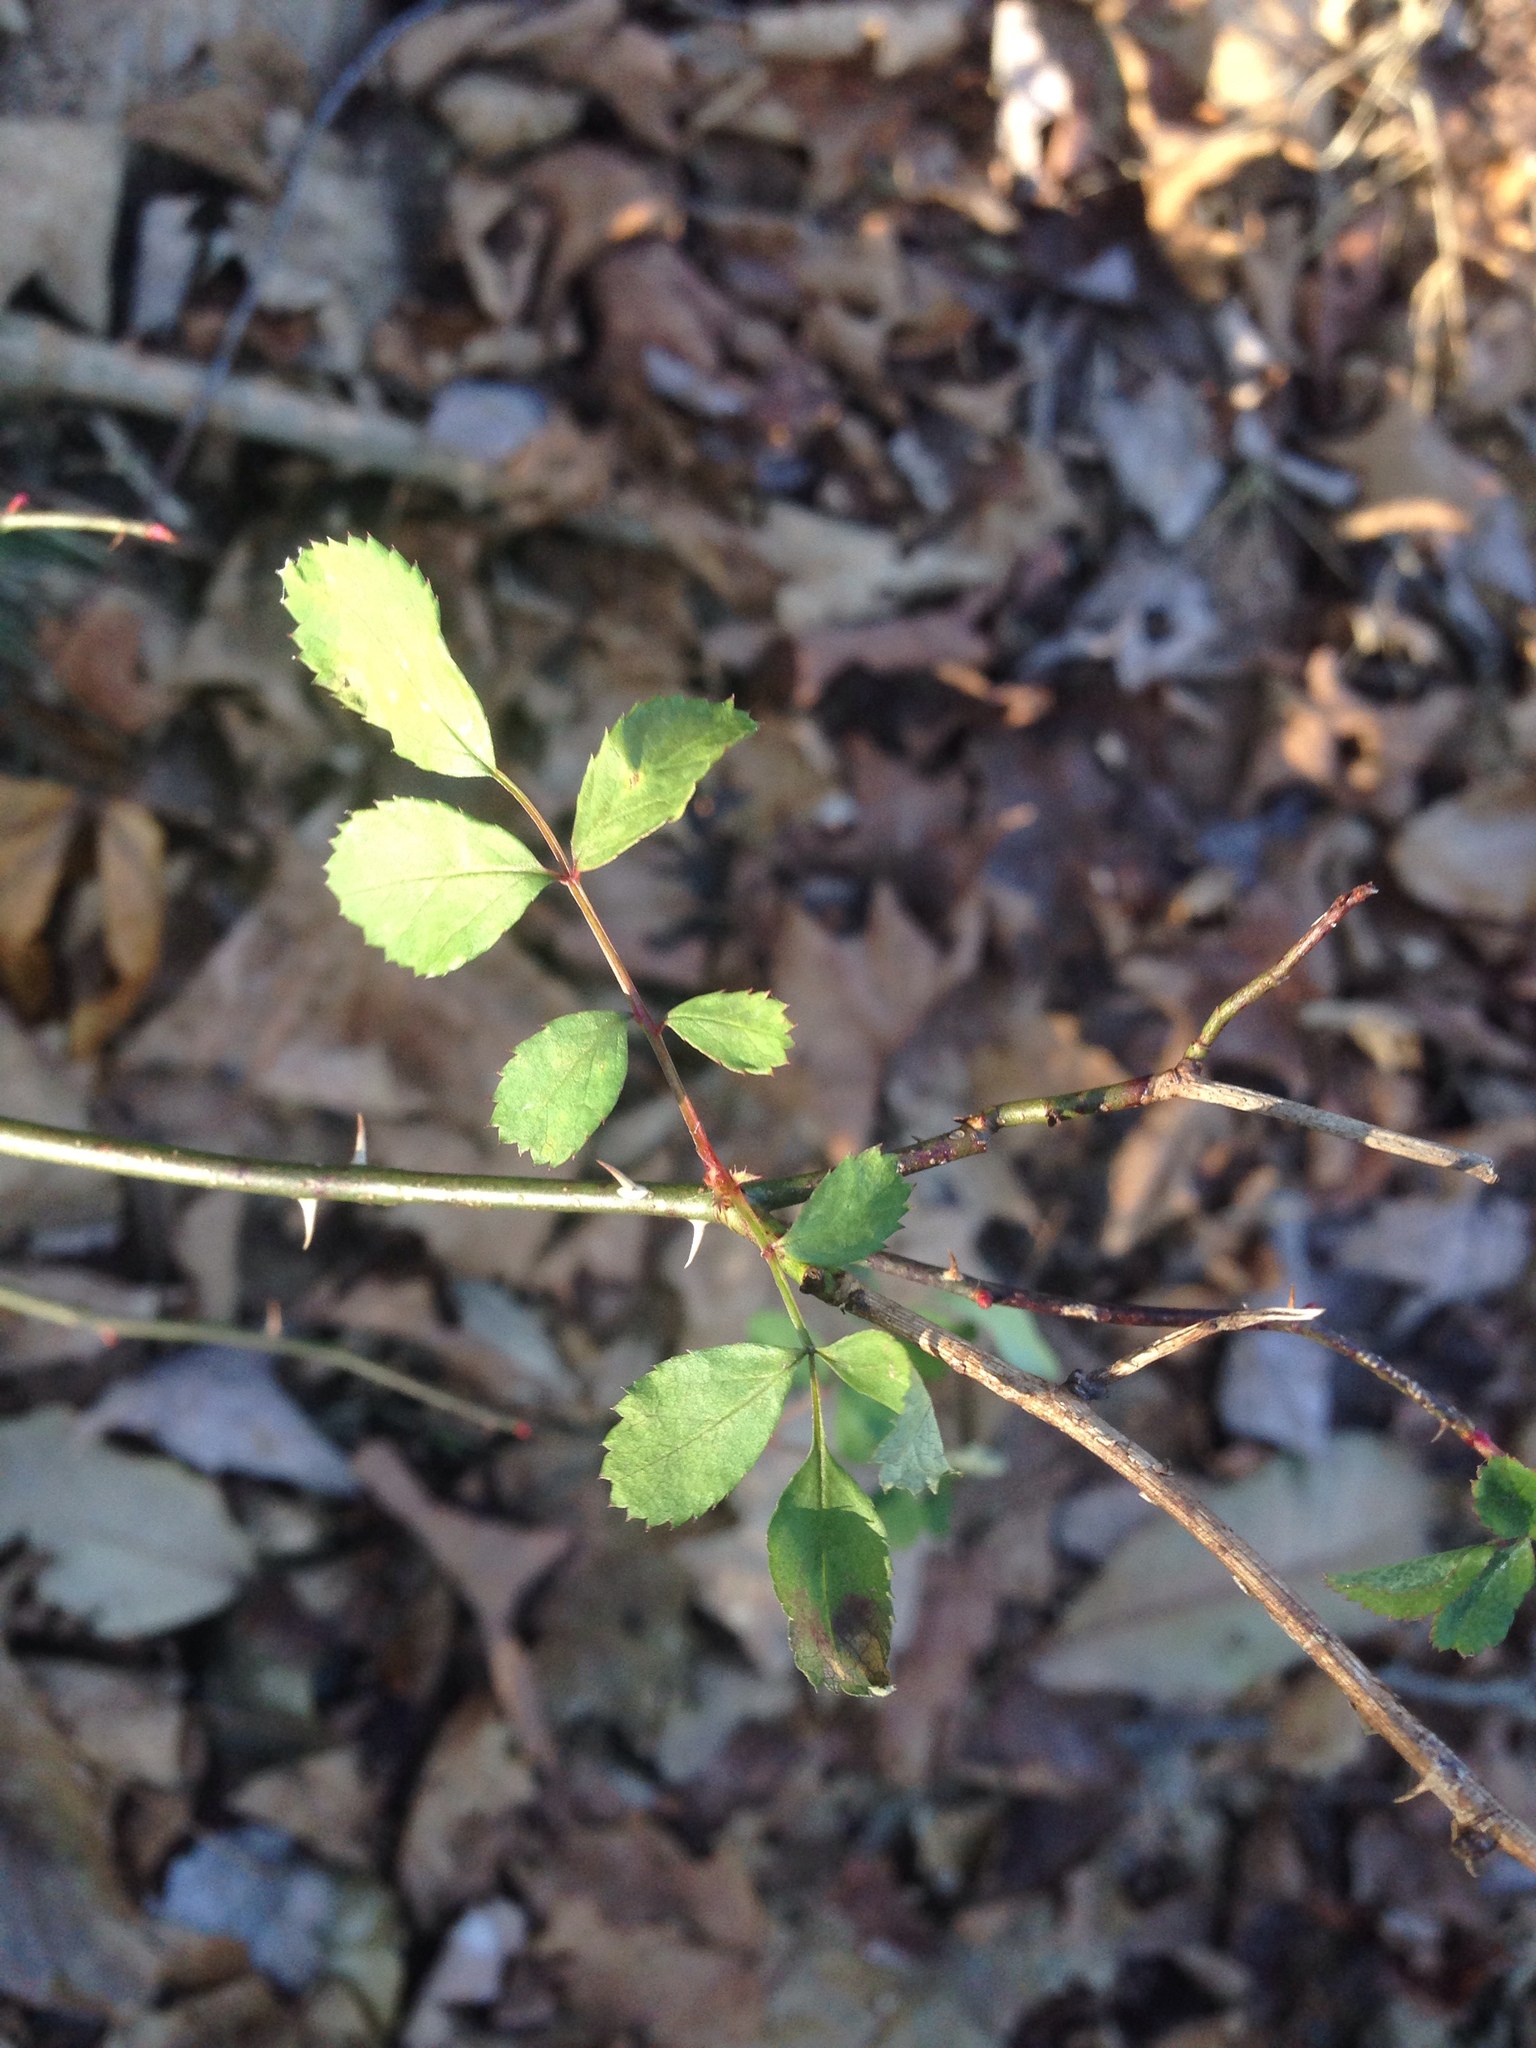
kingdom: Plantae
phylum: Tracheophyta
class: Magnoliopsida
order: Rosales
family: Rosaceae
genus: Rosa
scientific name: Rosa multiflora
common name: Multiflora rose
